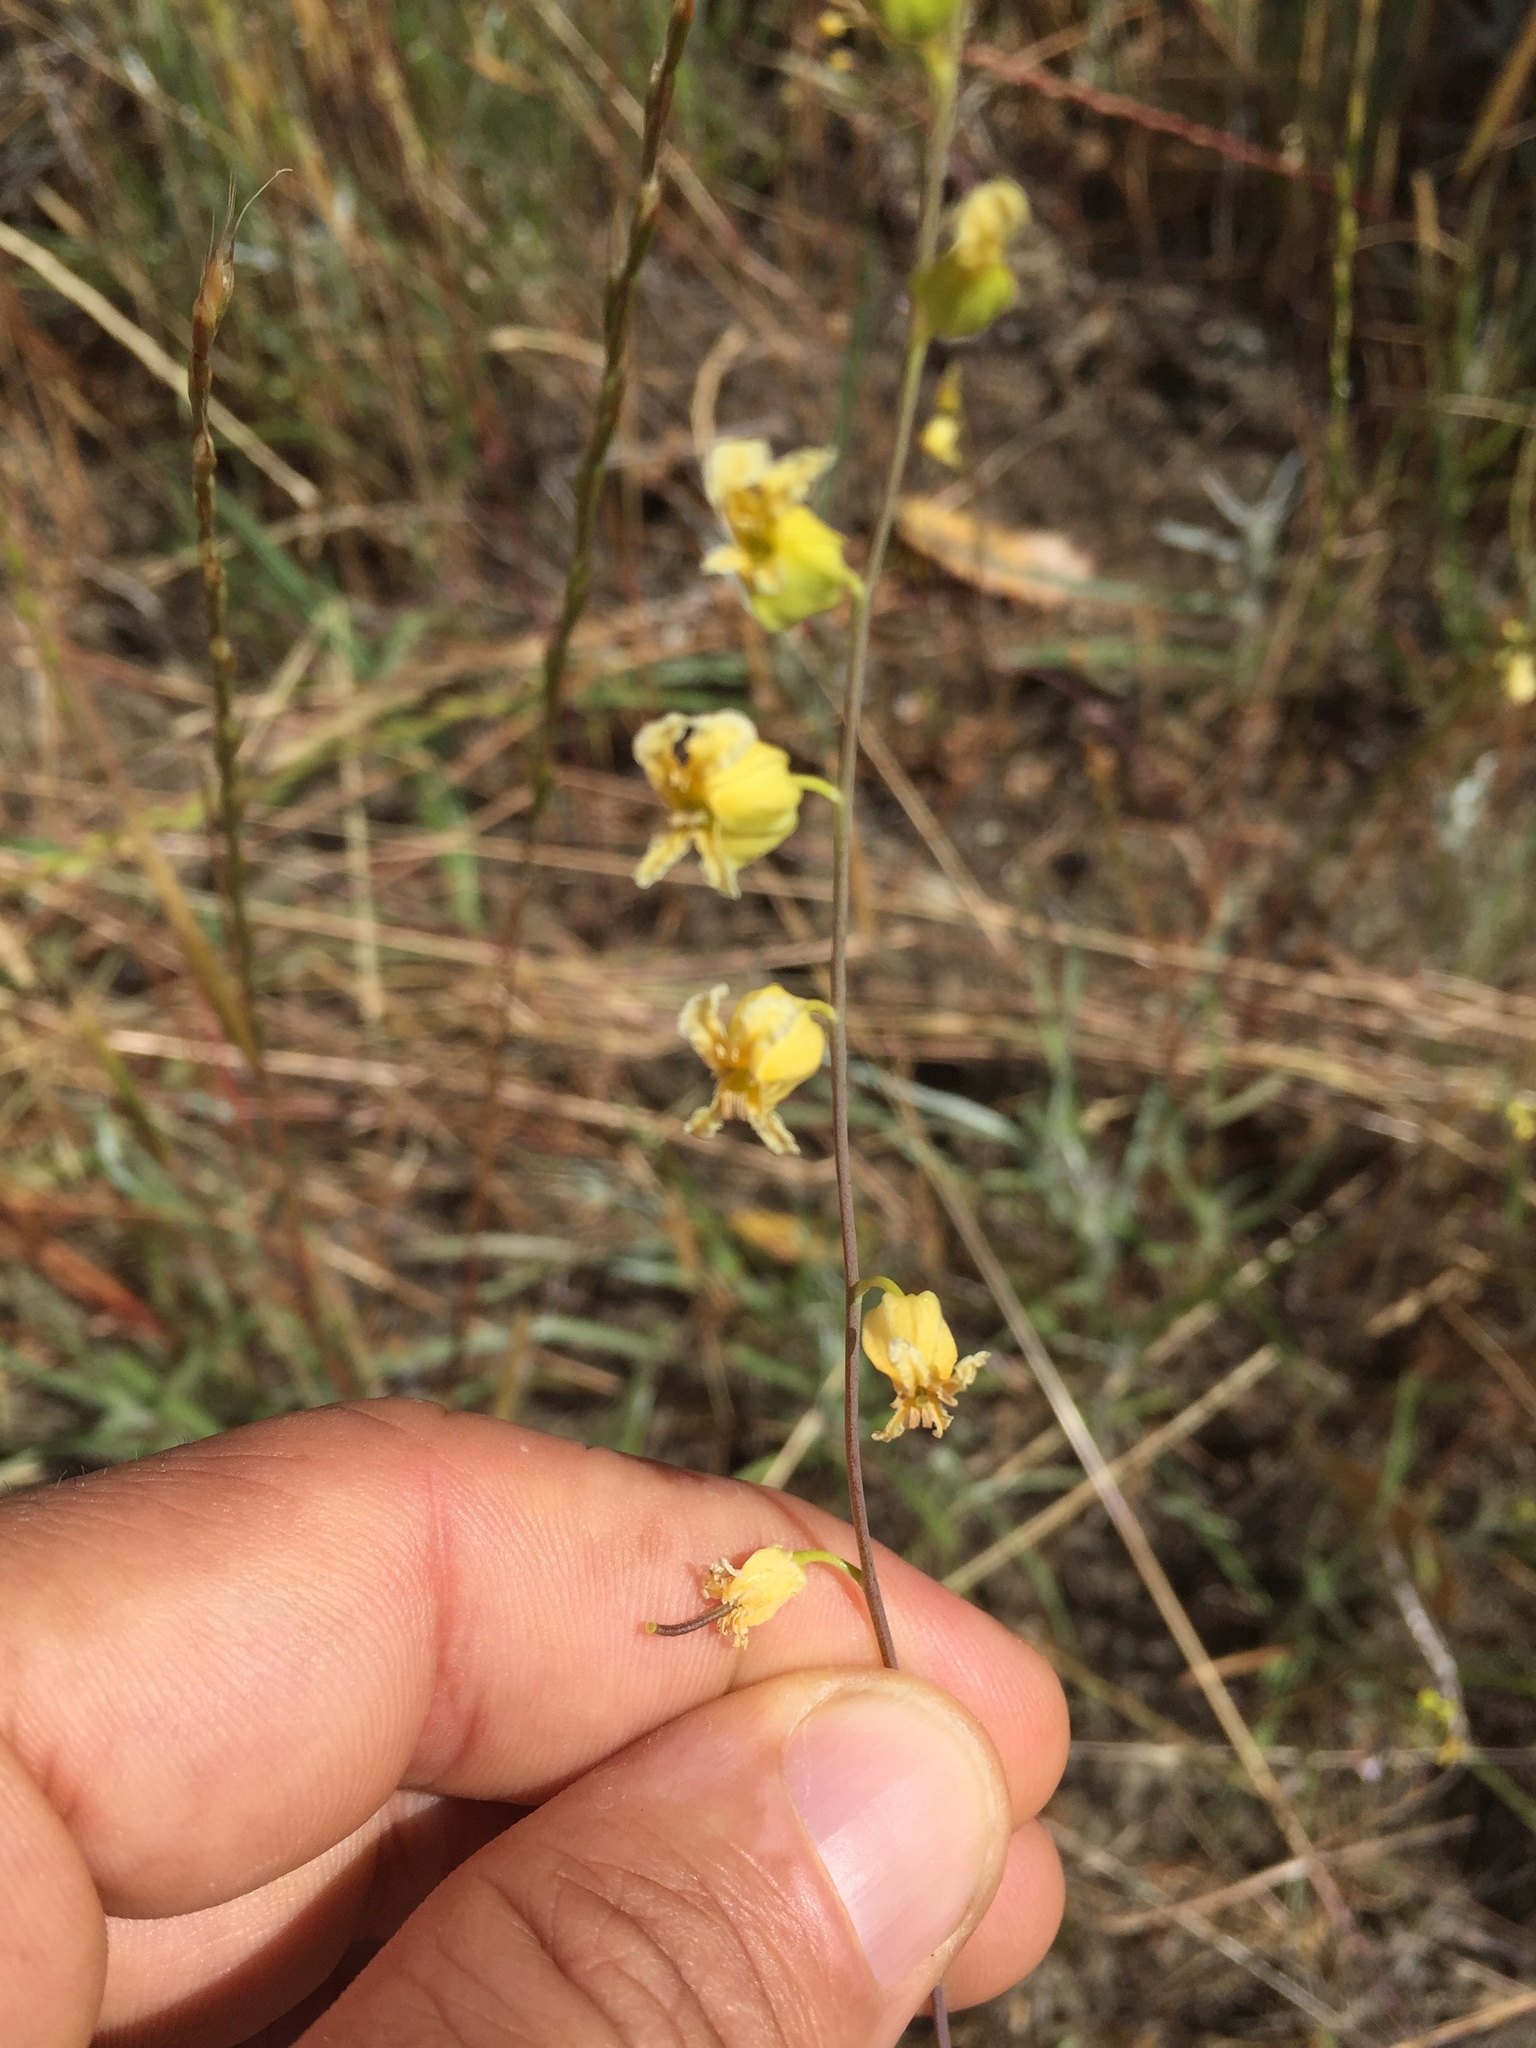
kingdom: Plantae
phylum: Tracheophyta
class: Magnoliopsida
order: Brassicales
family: Brassicaceae
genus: Streptanthus
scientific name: Streptanthus glandulosus
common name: Jewel-flower
